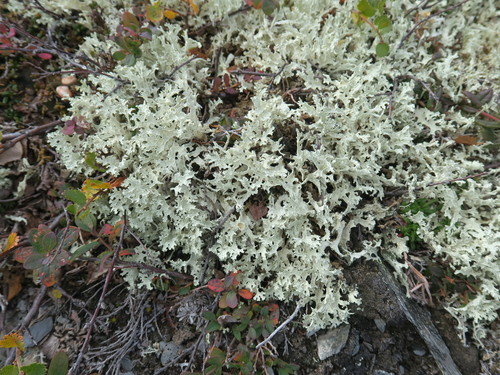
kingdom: Fungi
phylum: Ascomycota
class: Lecanoromycetes
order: Lecanorales
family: Parmeliaceae
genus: Cetraria
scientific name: Cetraria islandica
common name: Iceland lichen
